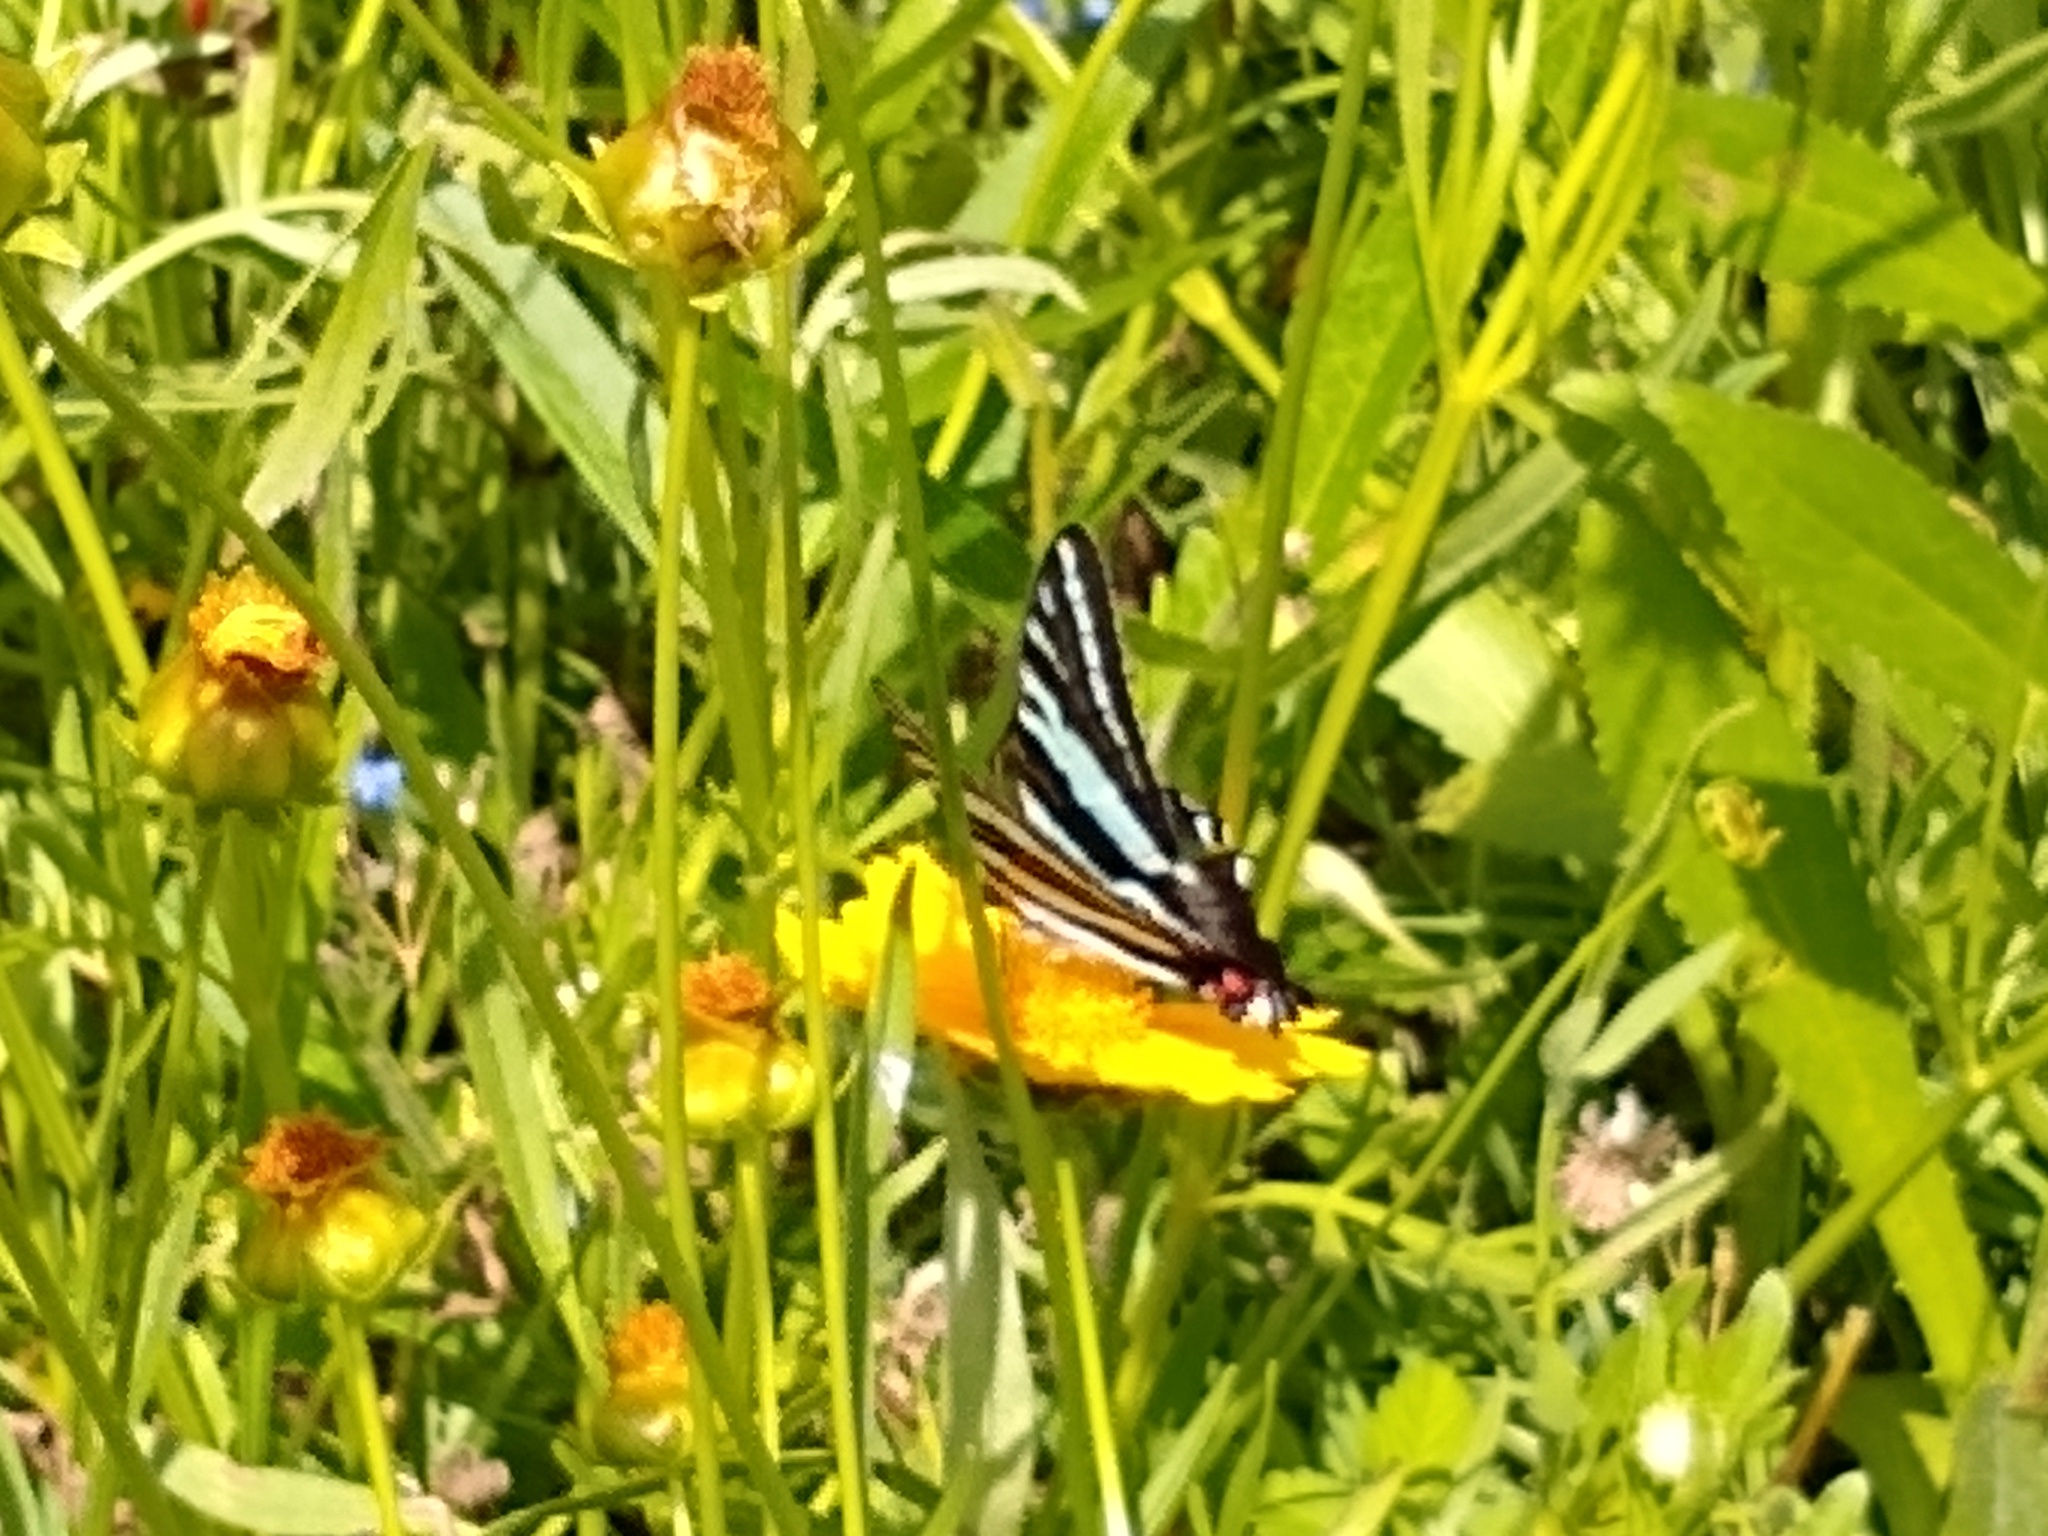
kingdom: Animalia
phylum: Arthropoda
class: Insecta
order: Lepidoptera
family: Papilionidae
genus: Protographium
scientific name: Protographium marcellus
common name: Zebra swallowtail
